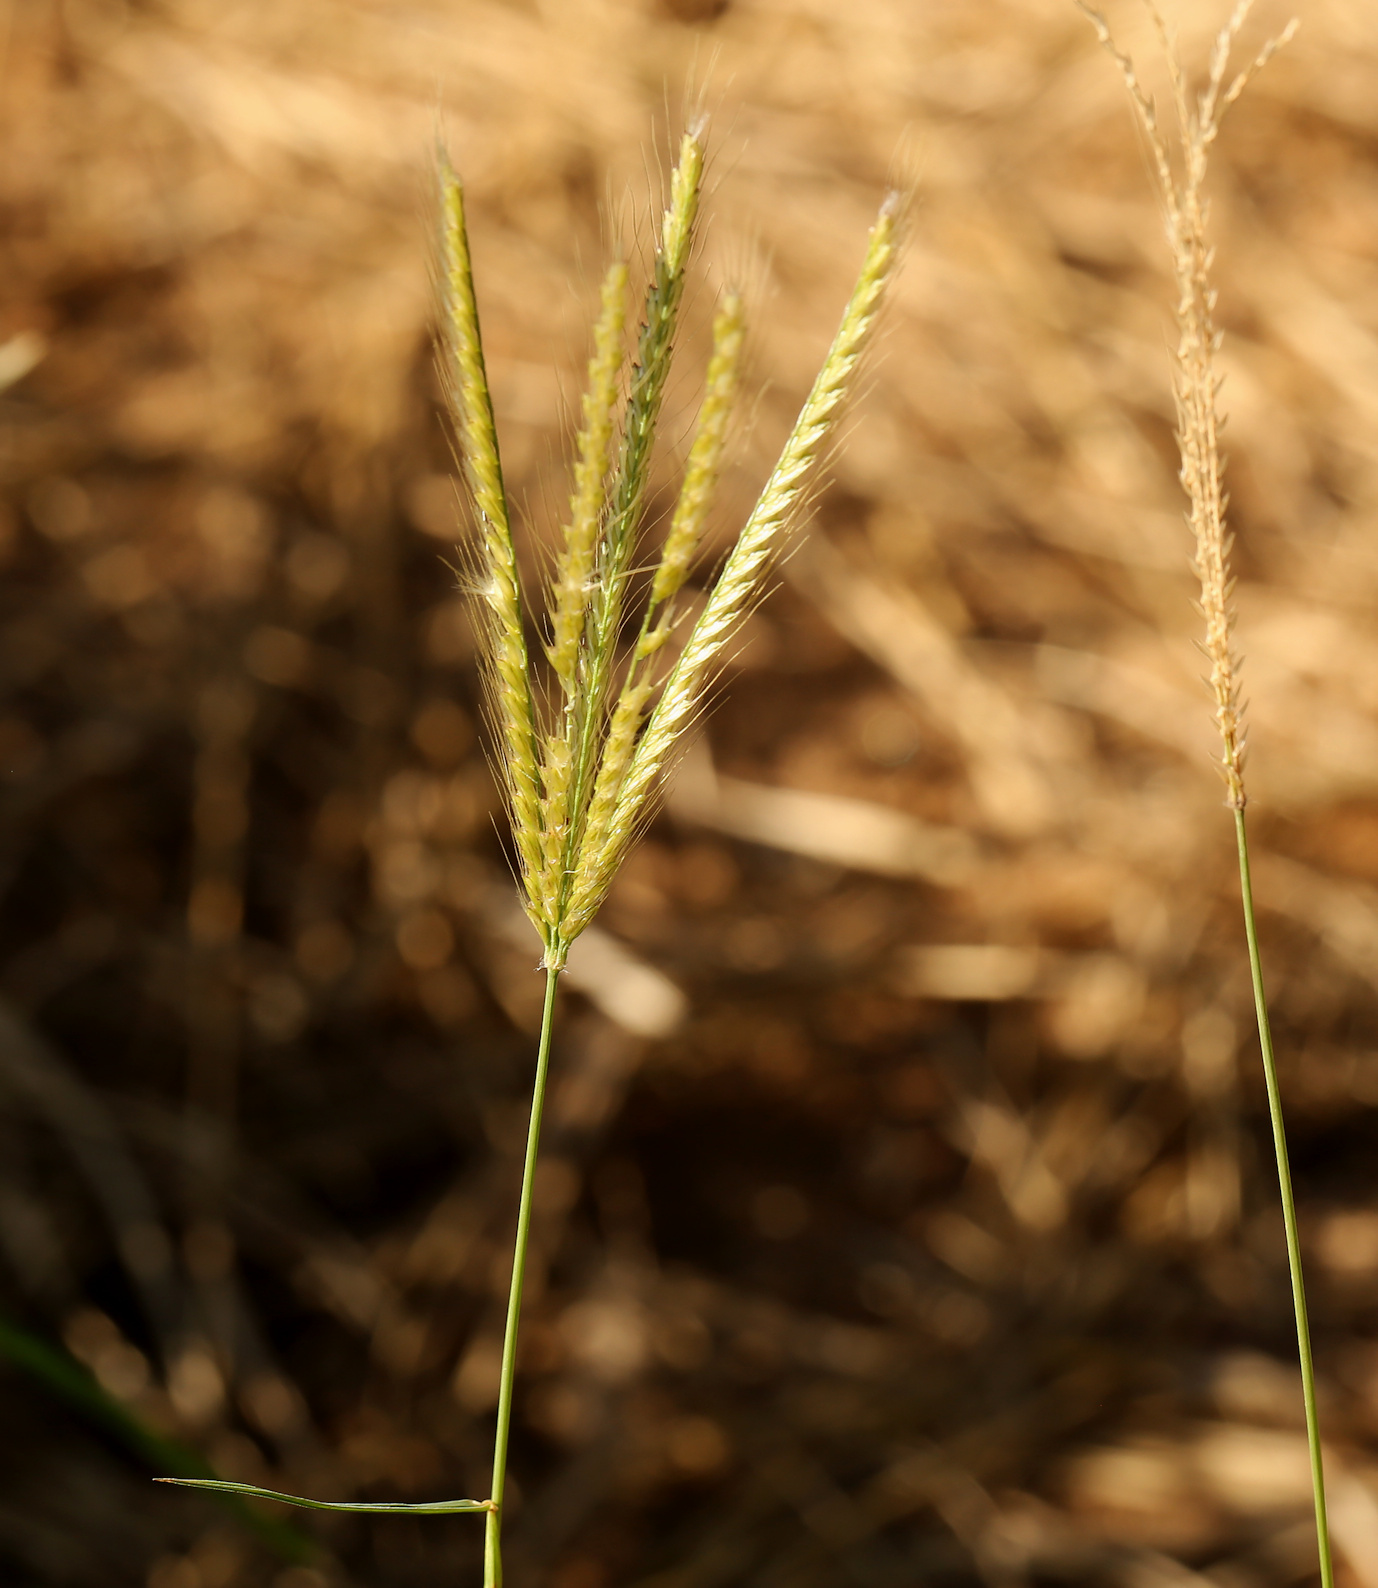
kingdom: Plantae
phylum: Tracheophyta
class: Liliopsida
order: Poales
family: Poaceae
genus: Chloris
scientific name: Chloris virgata
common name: Feathery rhodes-grass
